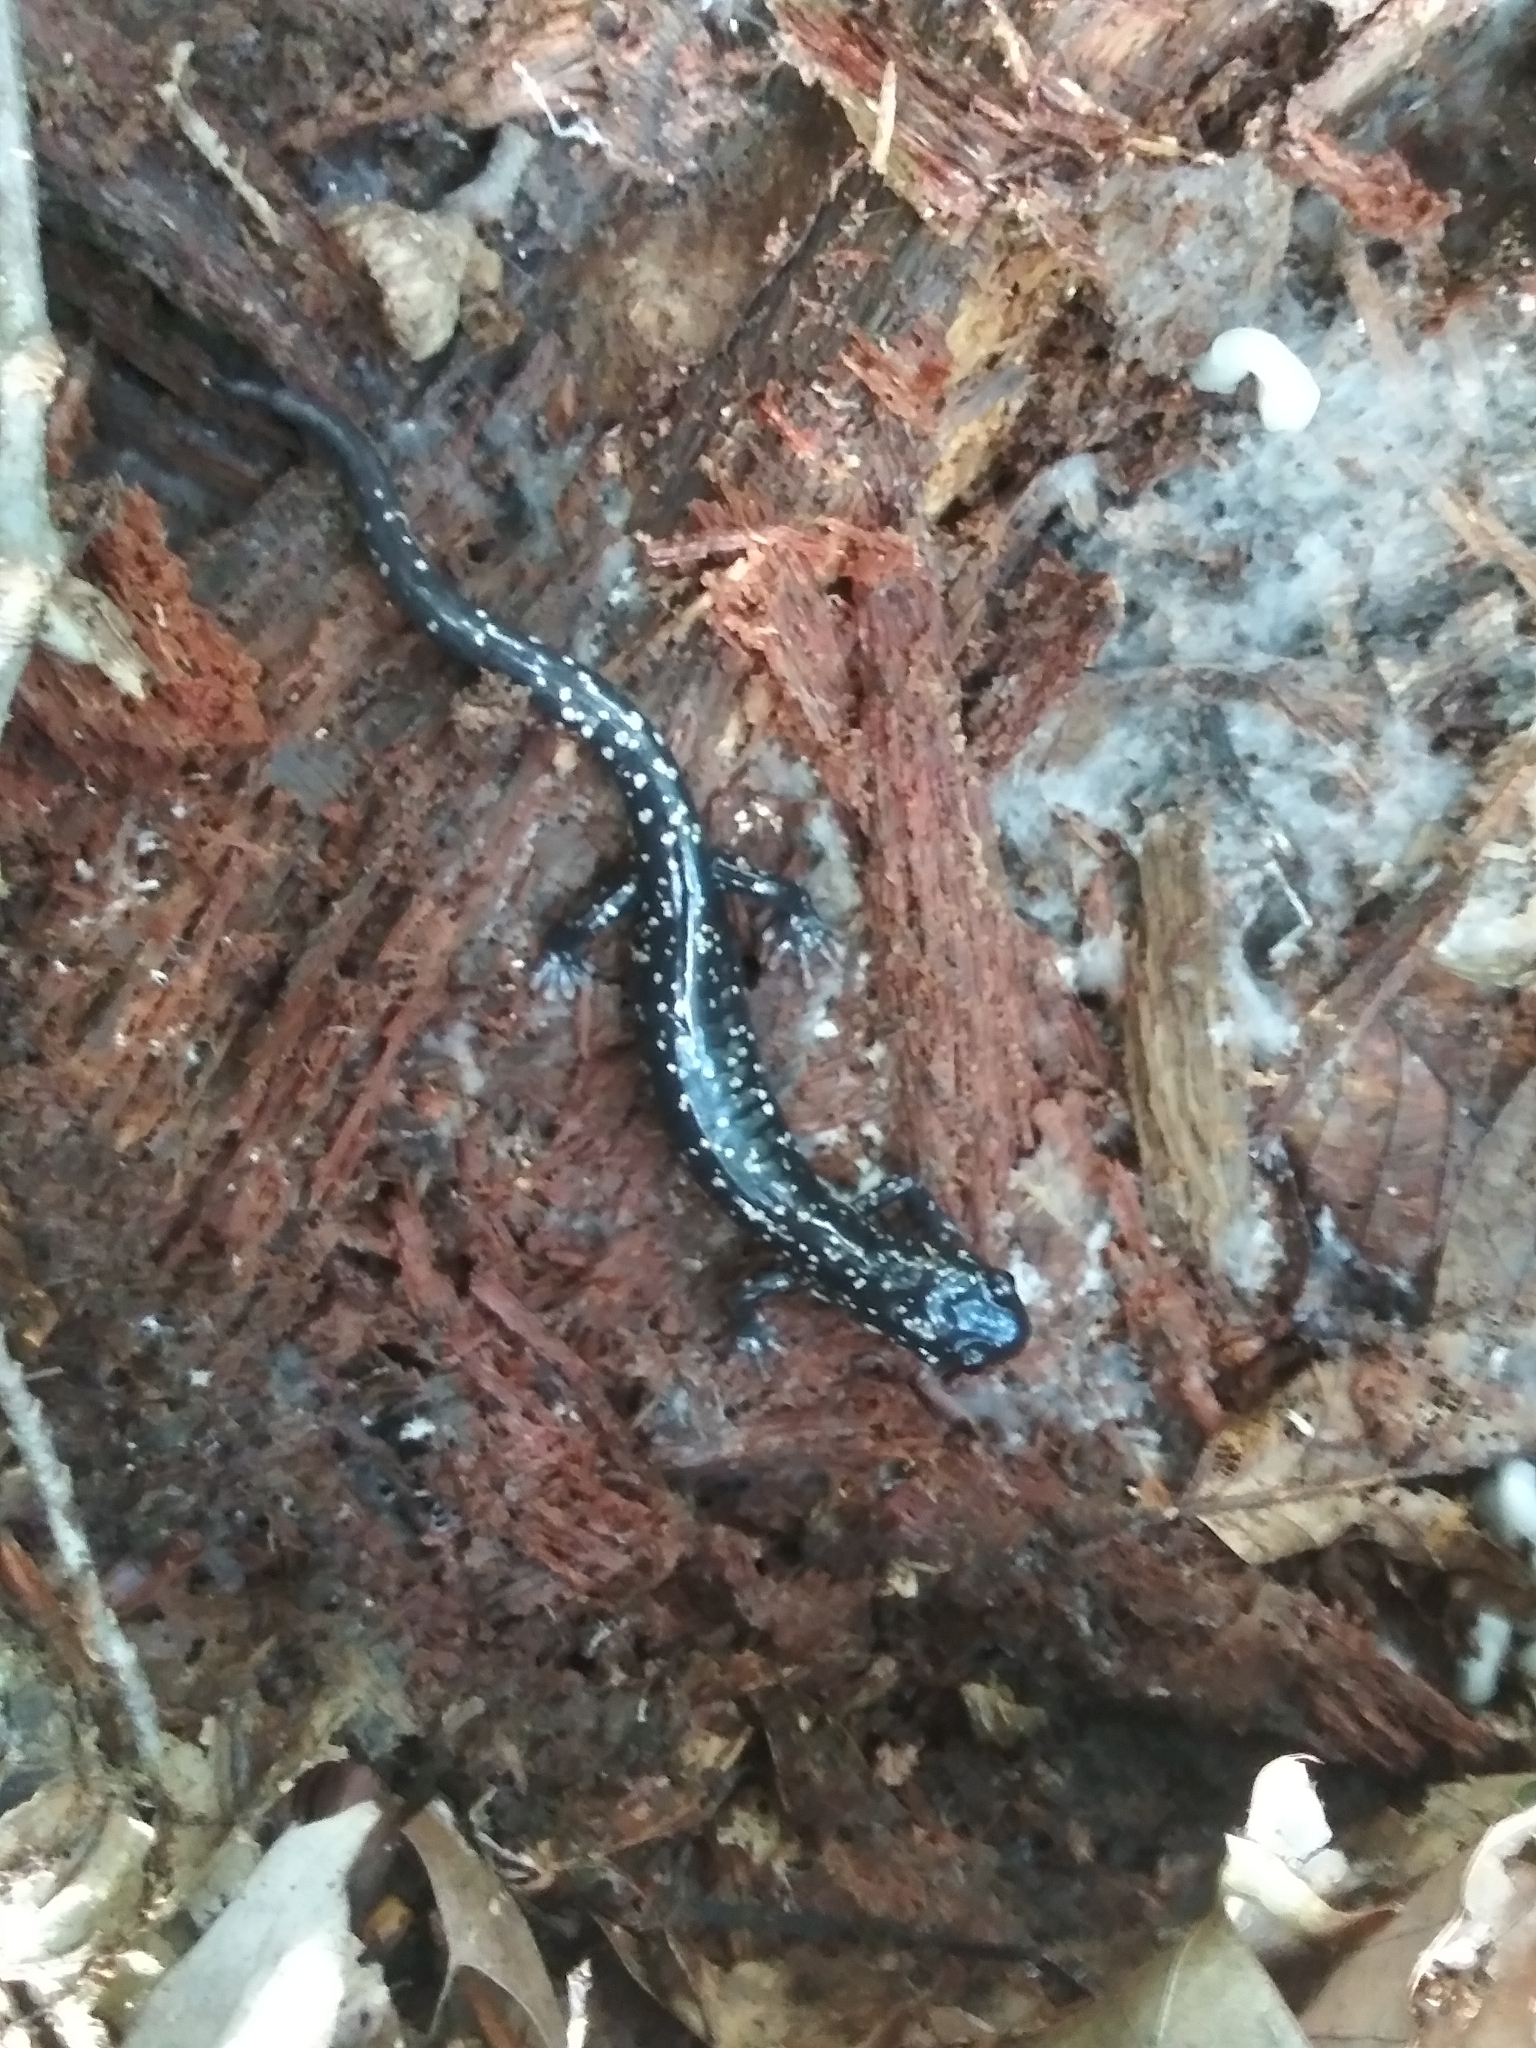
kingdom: Animalia
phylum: Chordata
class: Amphibia
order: Caudata
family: Plethodontidae
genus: Plethodon
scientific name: Plethodon glutinosus
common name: Northern slimy salamander
